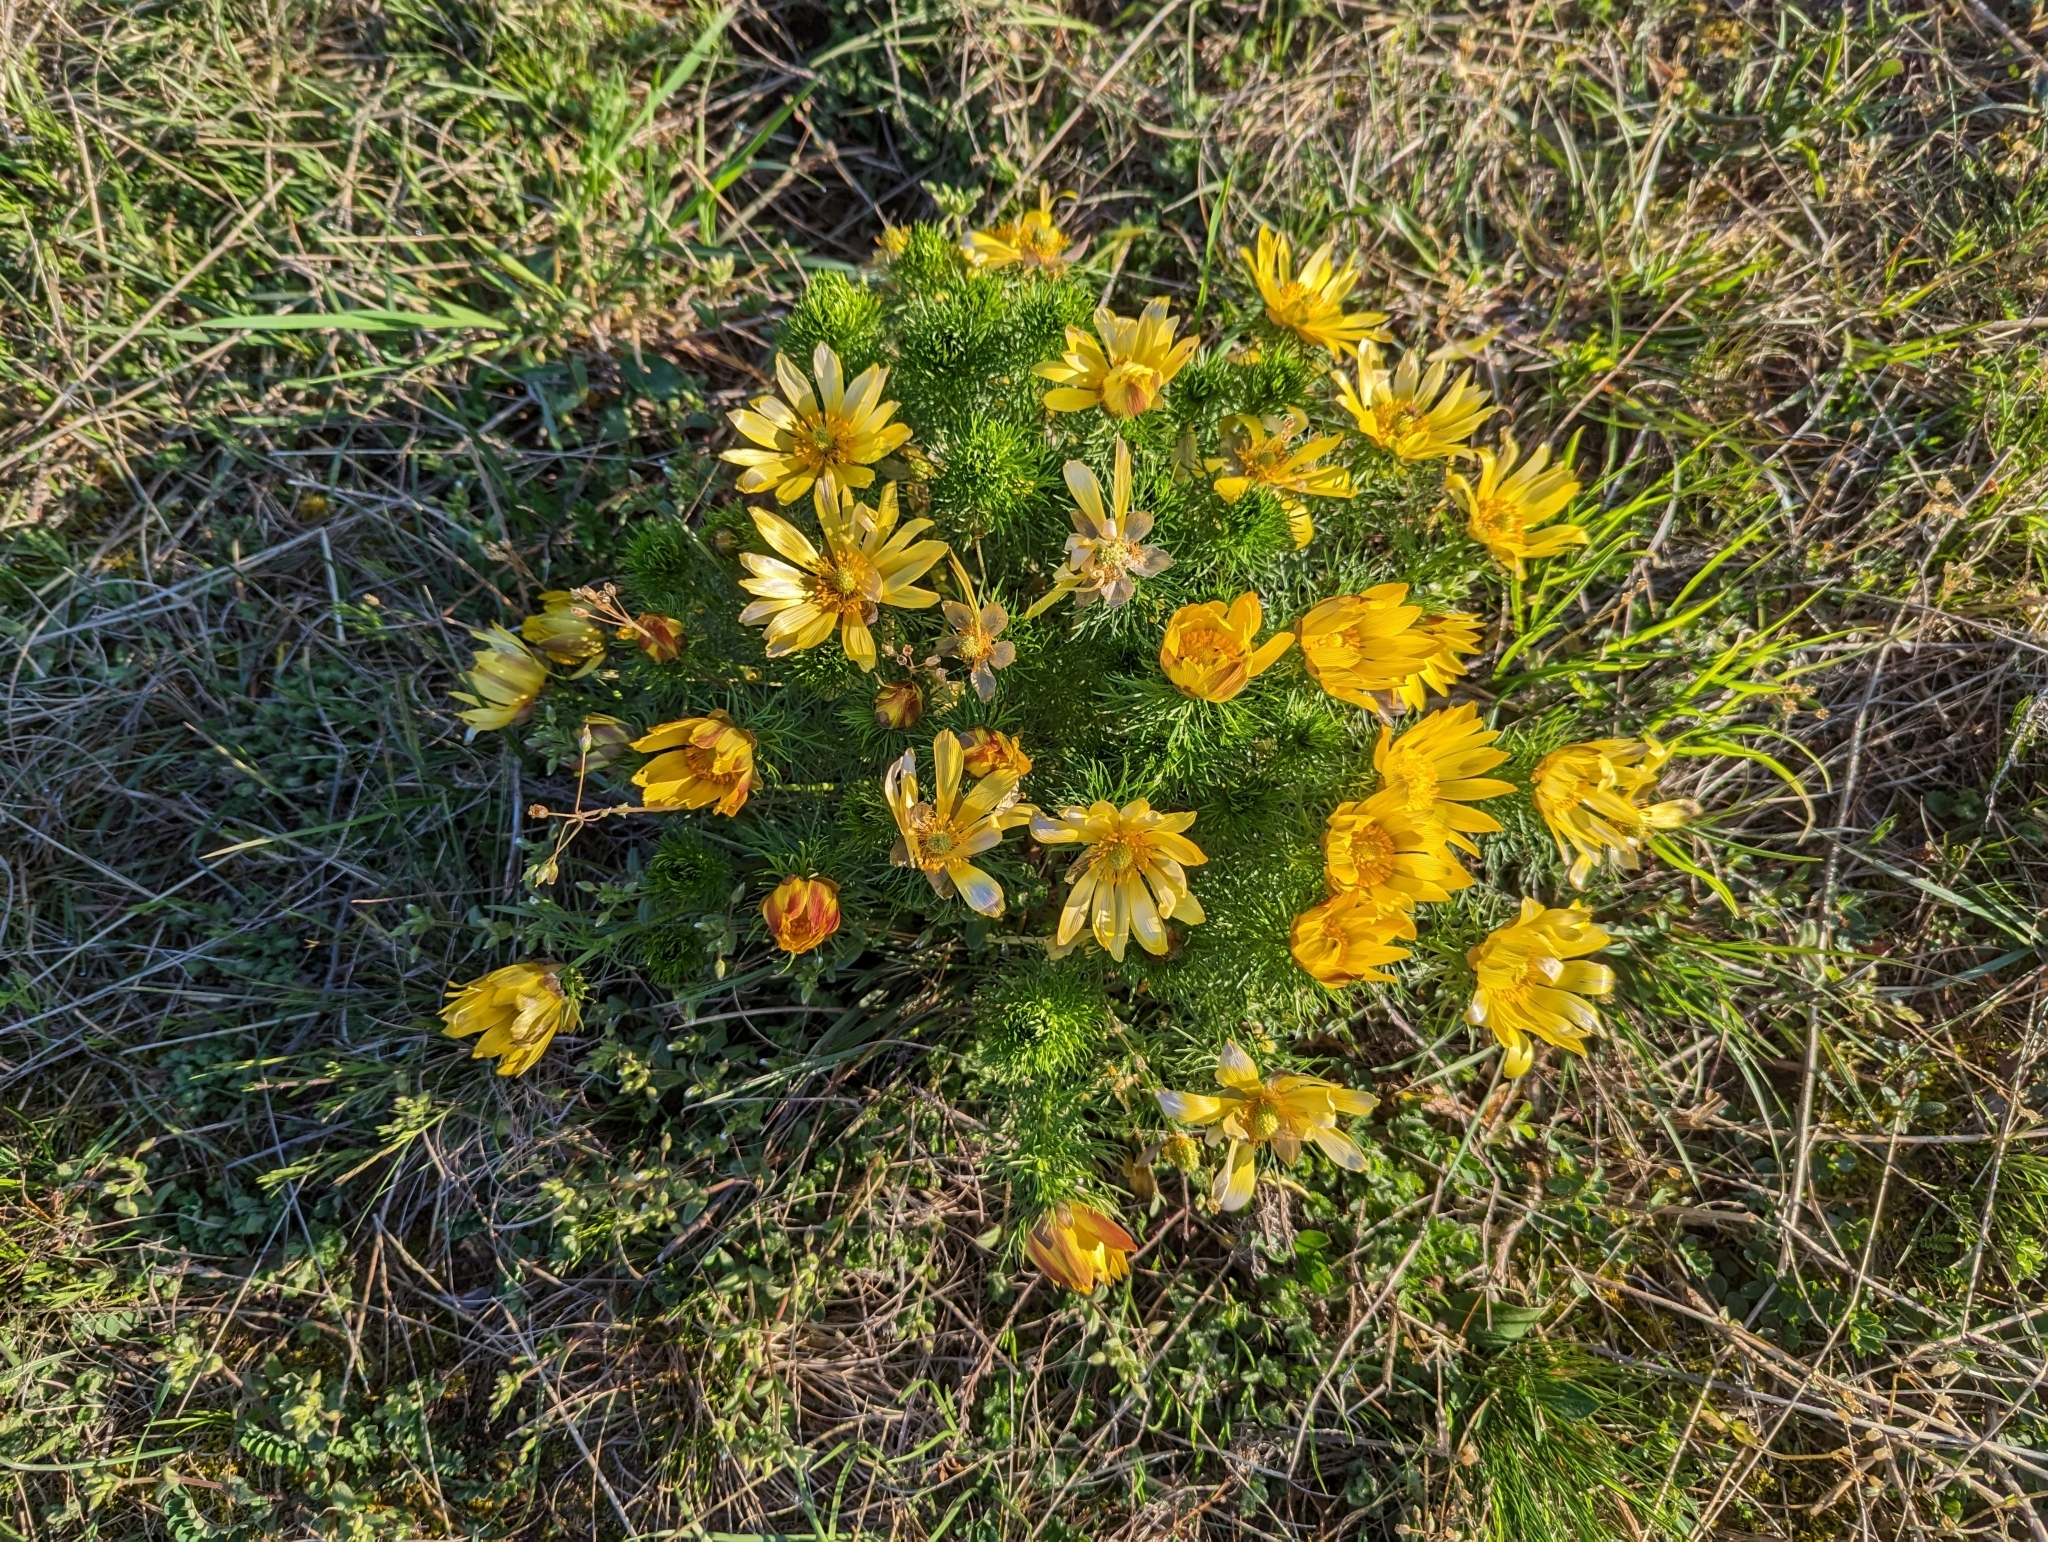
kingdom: Plantae
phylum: Tracheophyta
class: Magnoliopsida
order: Ranunculales
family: Ranunculaceae
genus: Adonis
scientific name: Adonis vernalis
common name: Yellow pheasants-eye
